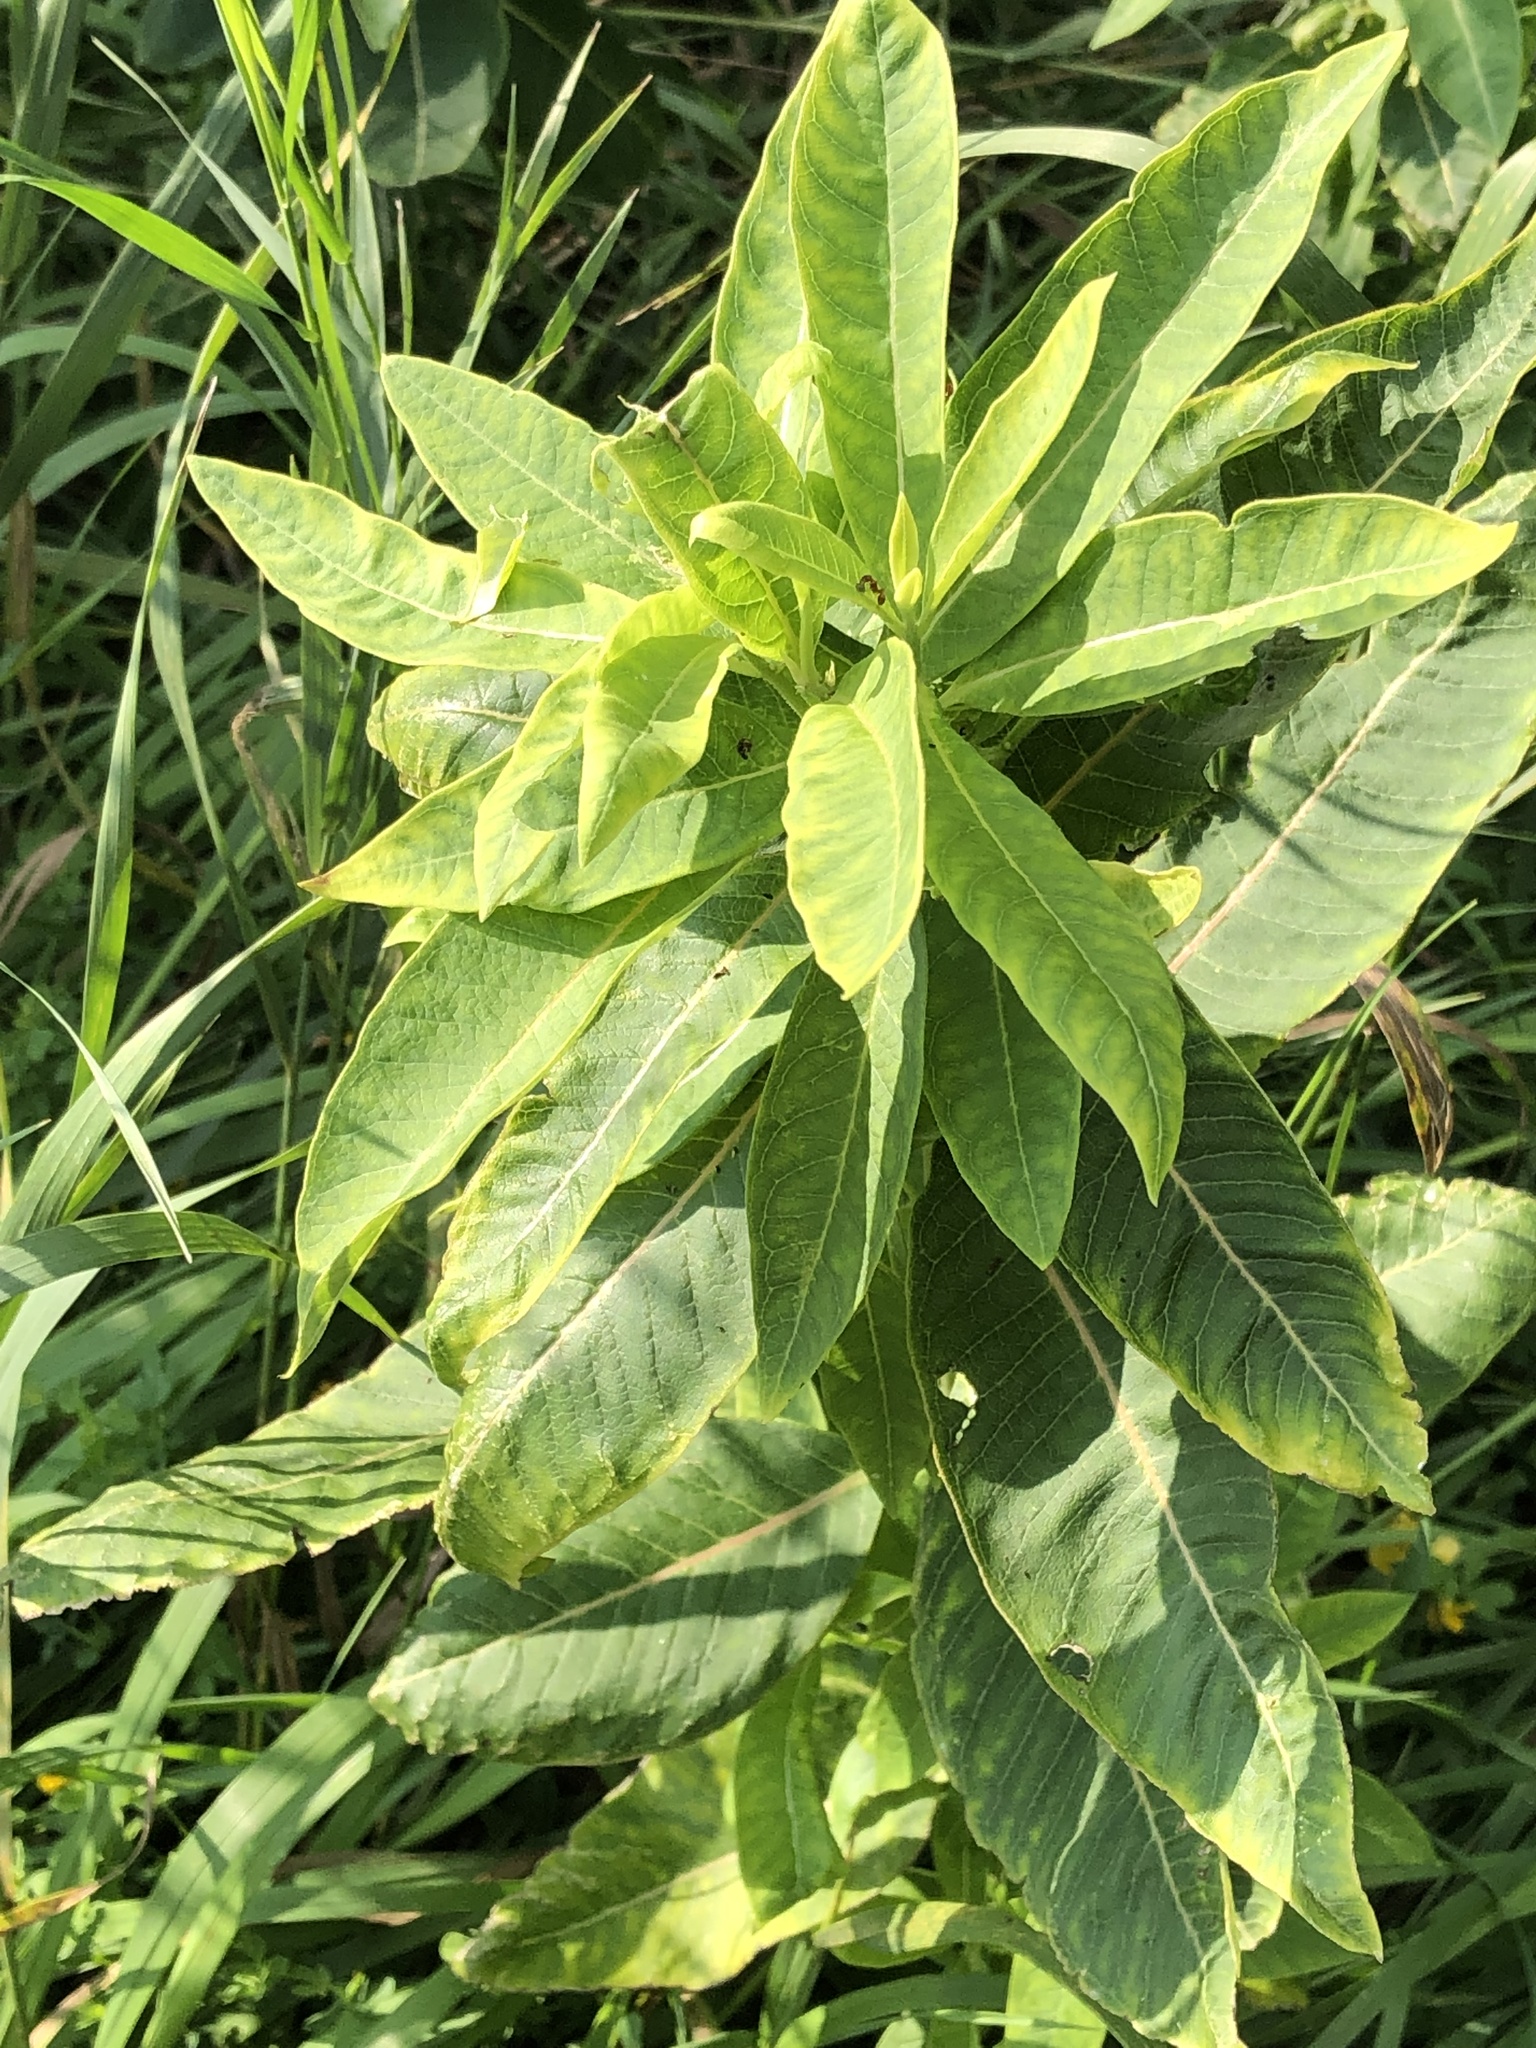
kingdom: Plantae
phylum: Tracheophyta
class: Magnoliopsida
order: Gentianales
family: Apocynaceae
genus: Asclepias
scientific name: Asclepias syriaca
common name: Common milkweed
